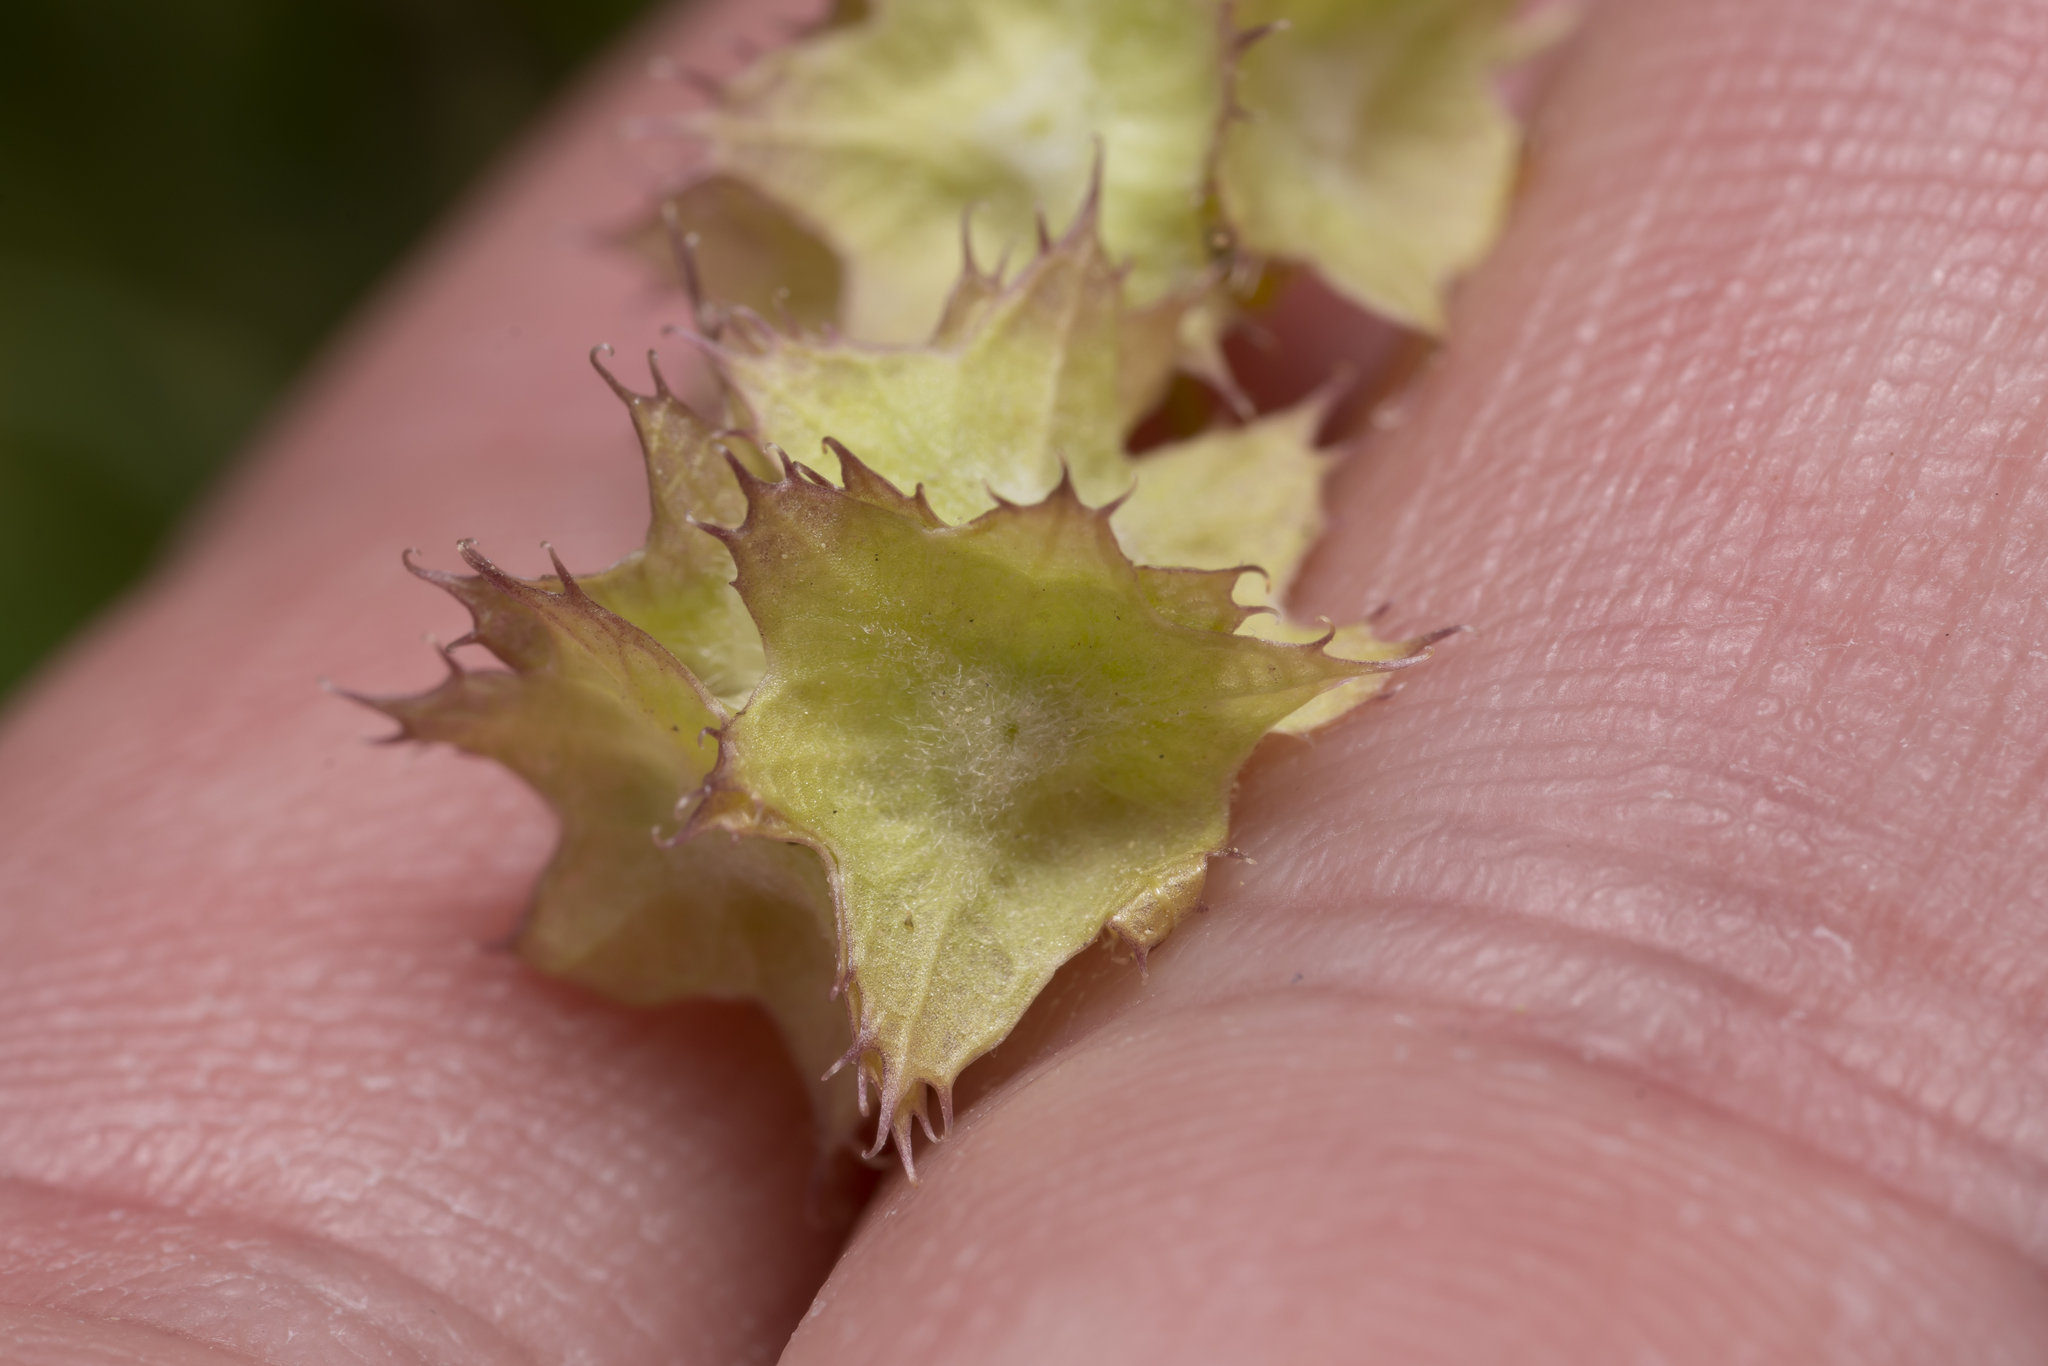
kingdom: Plantae
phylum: Tracheophyta
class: Magnoliopsida
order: Dipsacales
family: Caprifoliaceae
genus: Valerianella
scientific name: Valerianella obtusiloba
